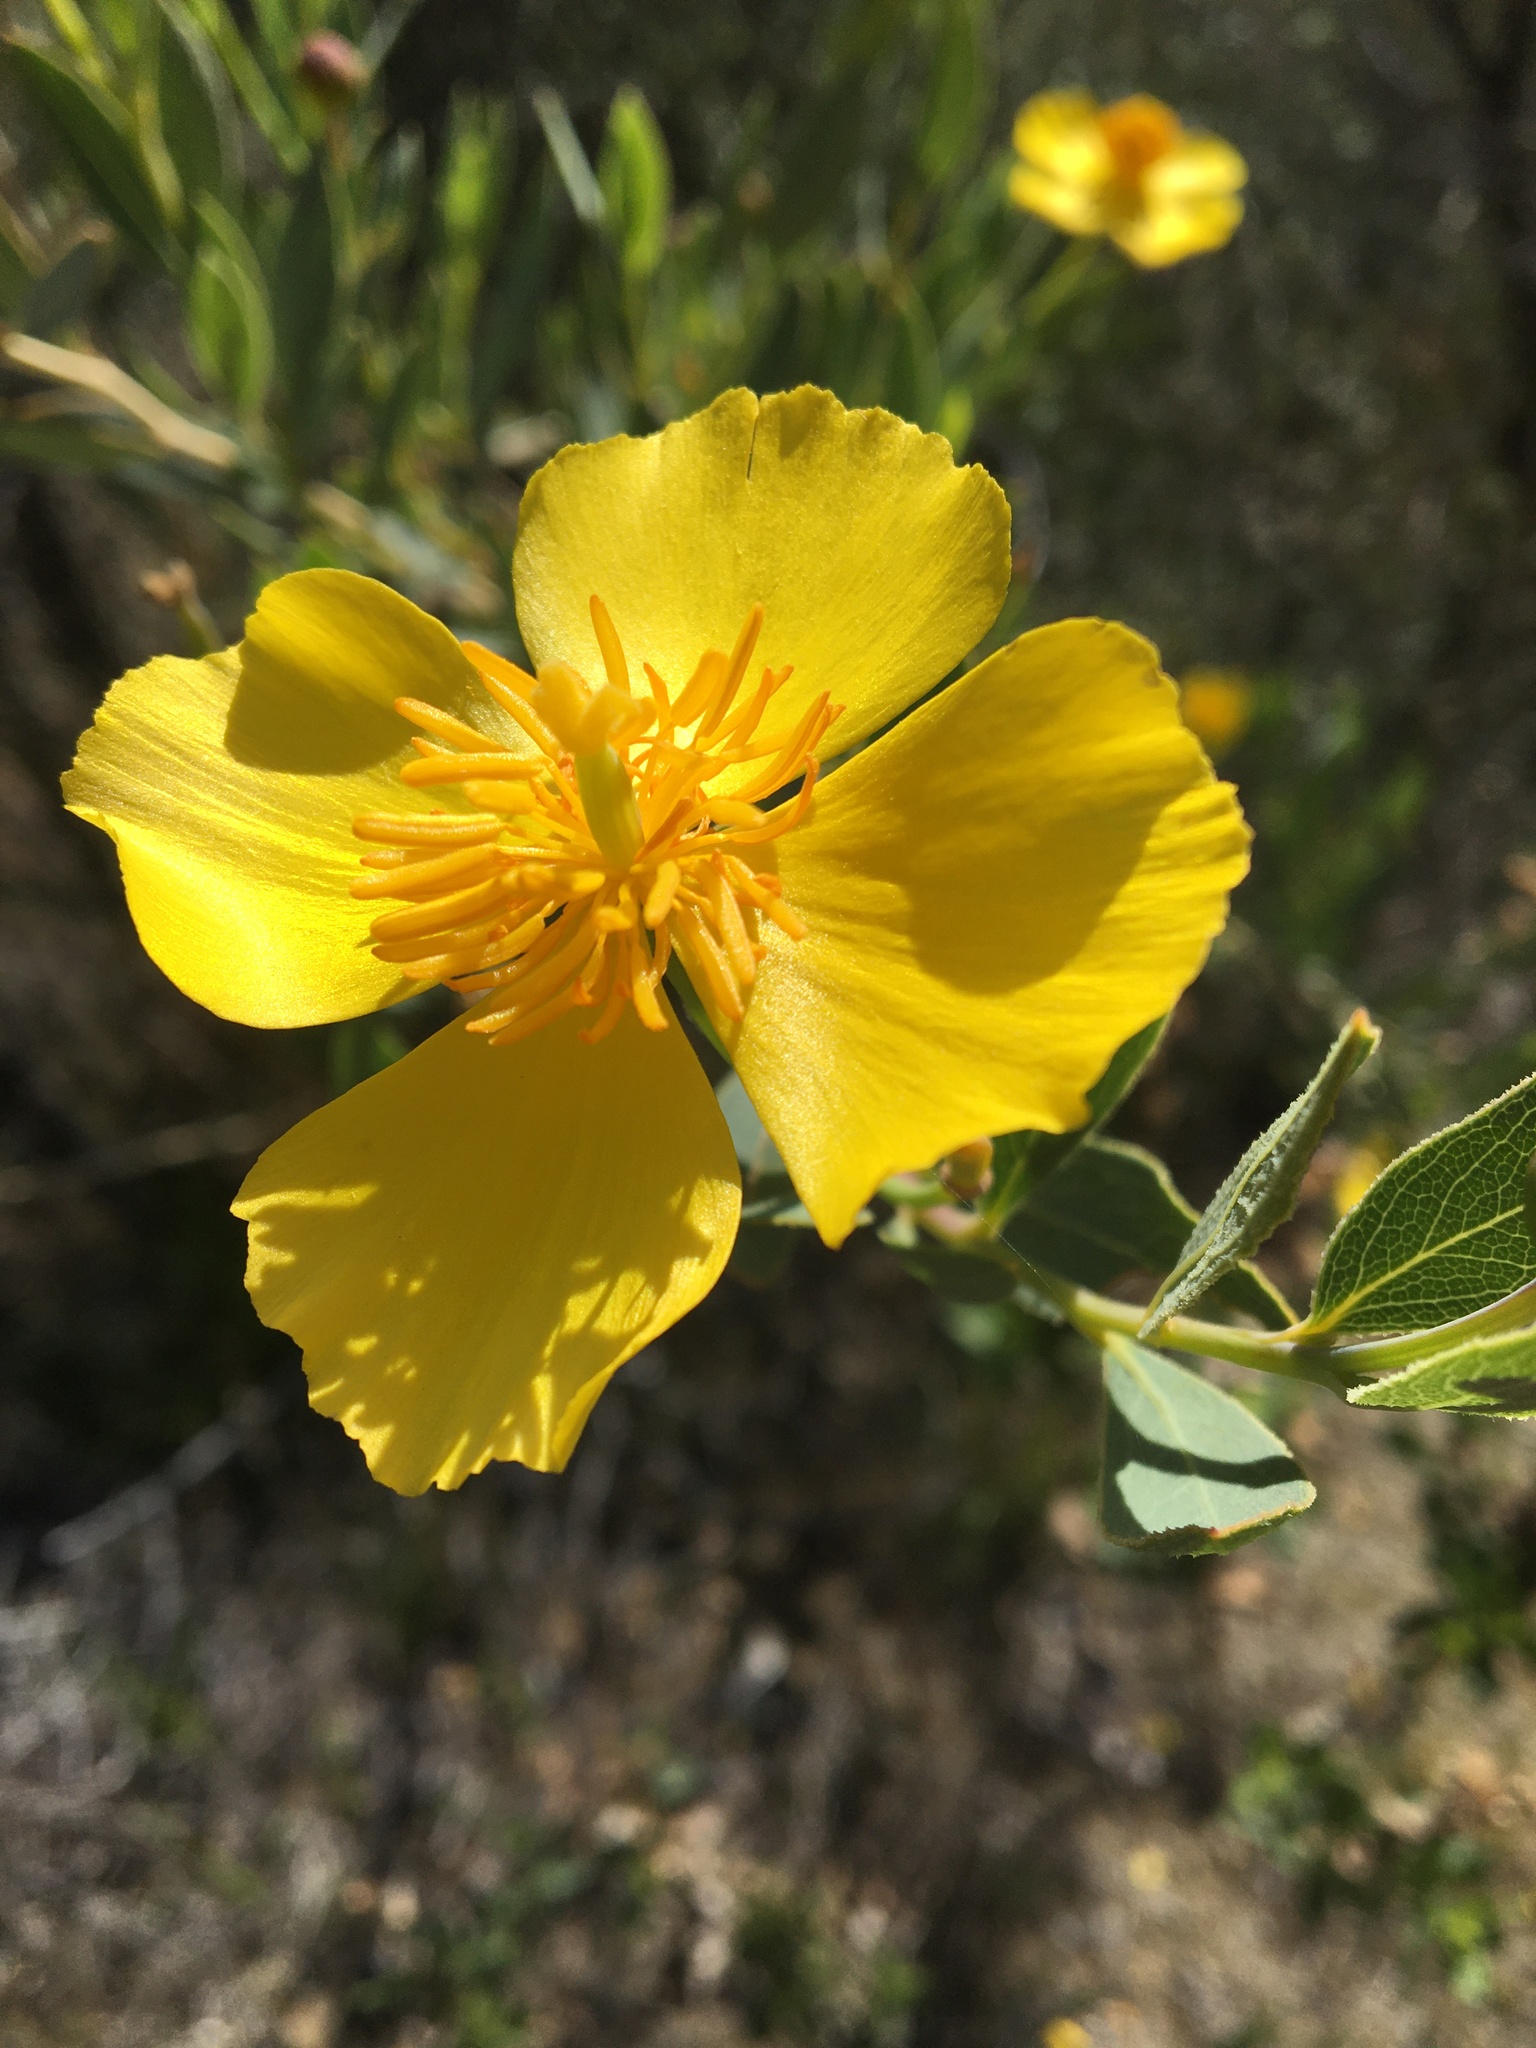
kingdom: Plantae
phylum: Tracheophyta
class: Magnoliopsida
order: Ranunculales
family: Papaveraceae
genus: Dendromecon
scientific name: Dendromecon rigida
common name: Tree poppy
